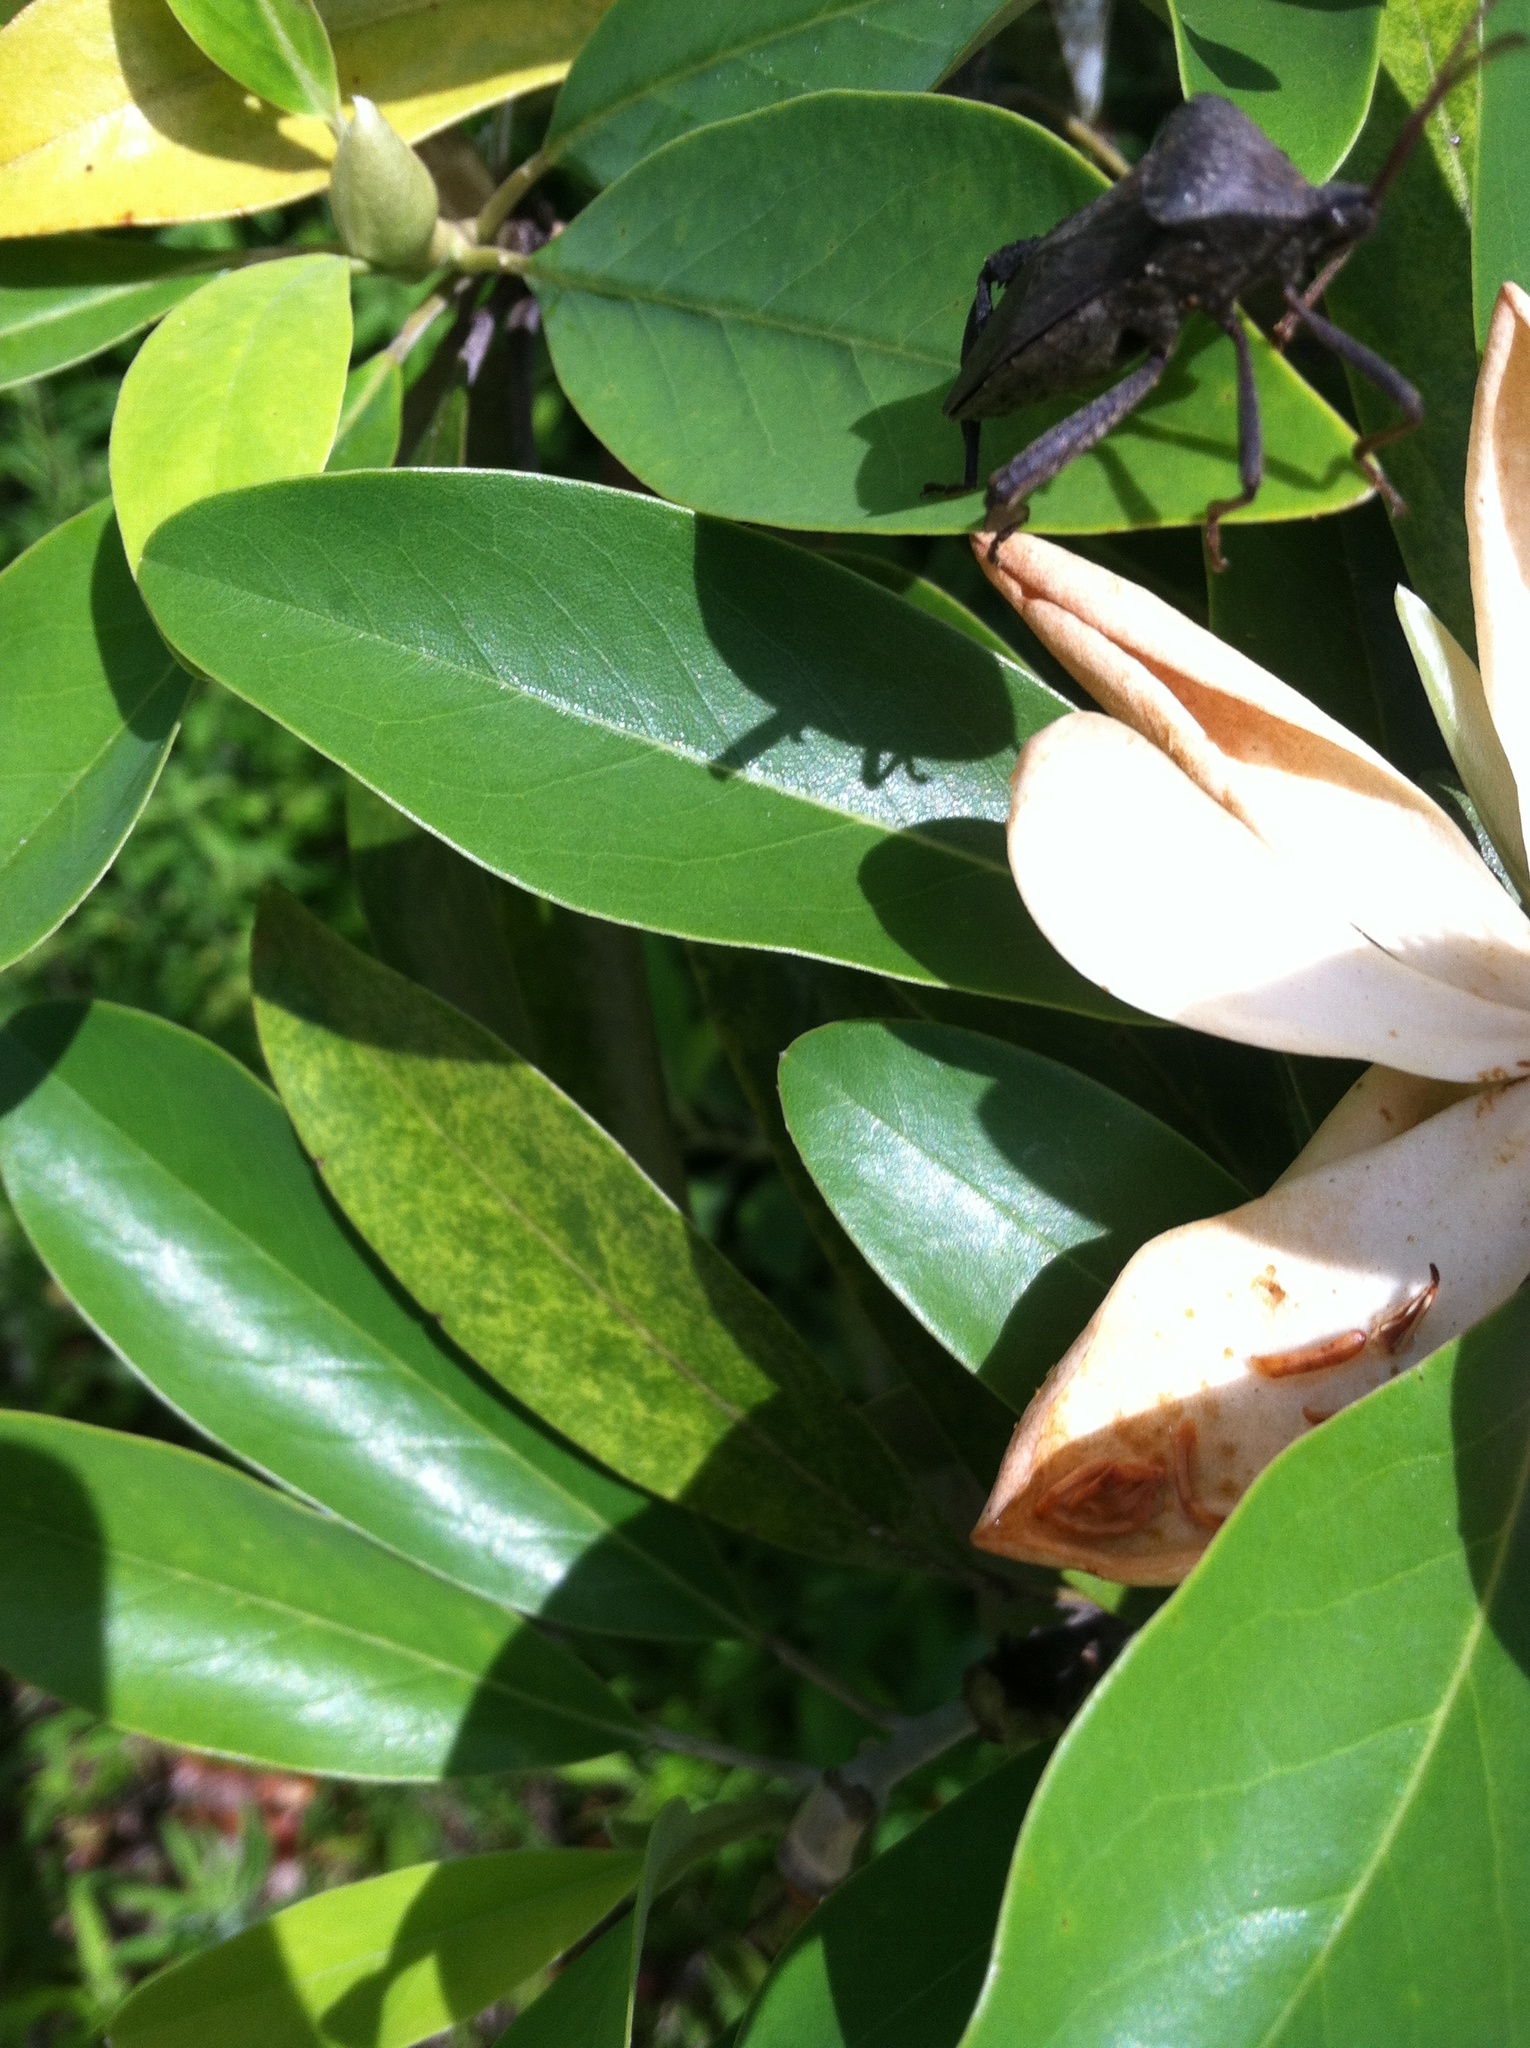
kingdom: Animalia
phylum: Arthropoda
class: Insecta
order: Hemiptera
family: Coreidae
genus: Acanthocephala
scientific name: Acanthocephala femorata
